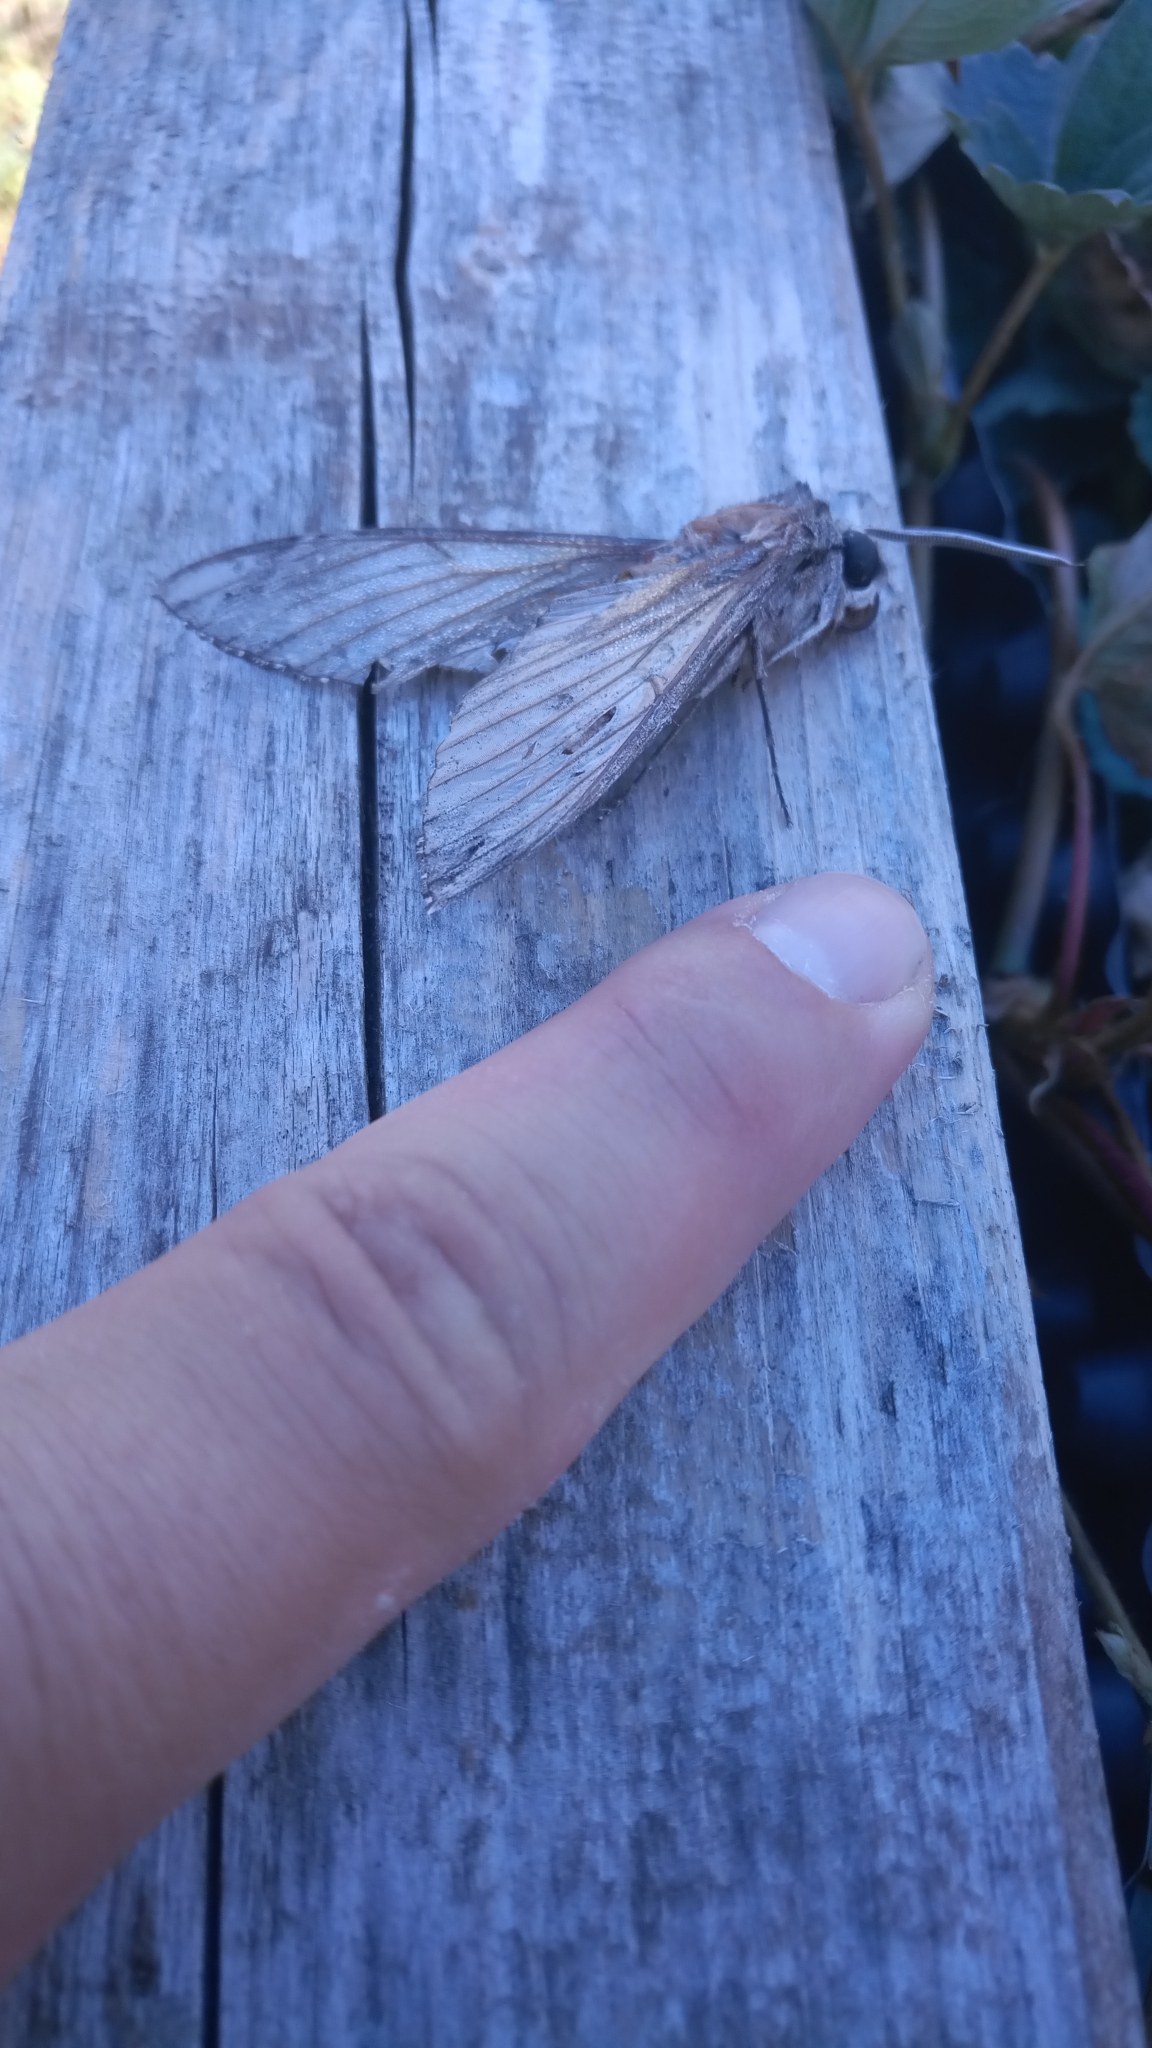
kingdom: Animalia
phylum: Arthropoda
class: Insecta
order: Lepidoptera
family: Sphingidae
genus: Agrius
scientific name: Agrius convolvuli
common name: Convolvulus hawkmoth
